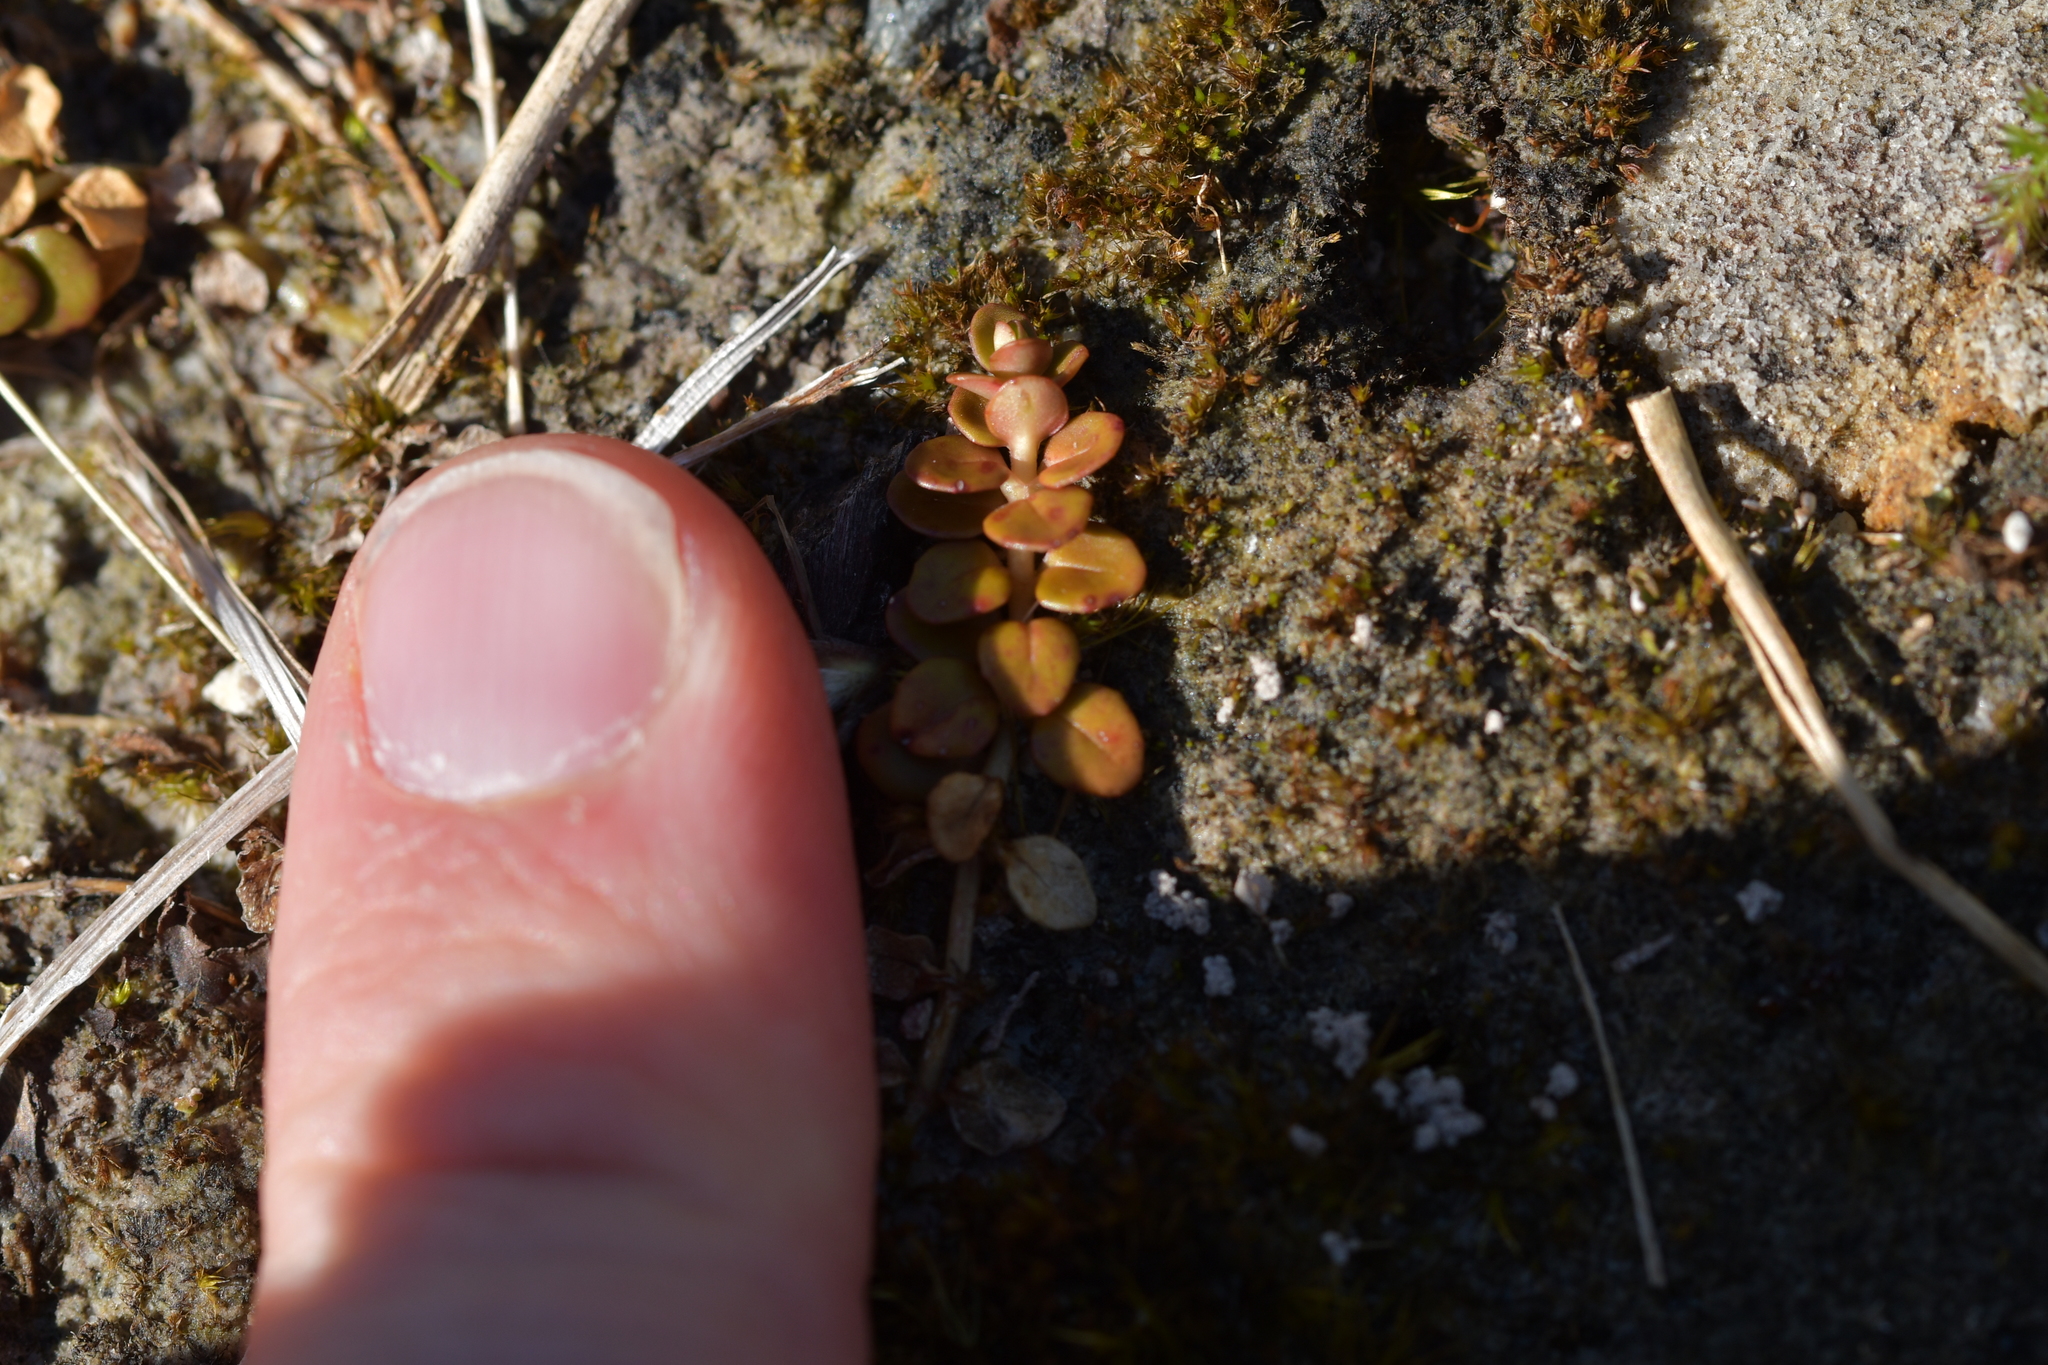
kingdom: Plantae
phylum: Tracheophyta
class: Magnoliopsida
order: Myrtales
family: Onagraceae
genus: Epilobium
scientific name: Epilobium brunnescens
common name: New zealand willowherb
